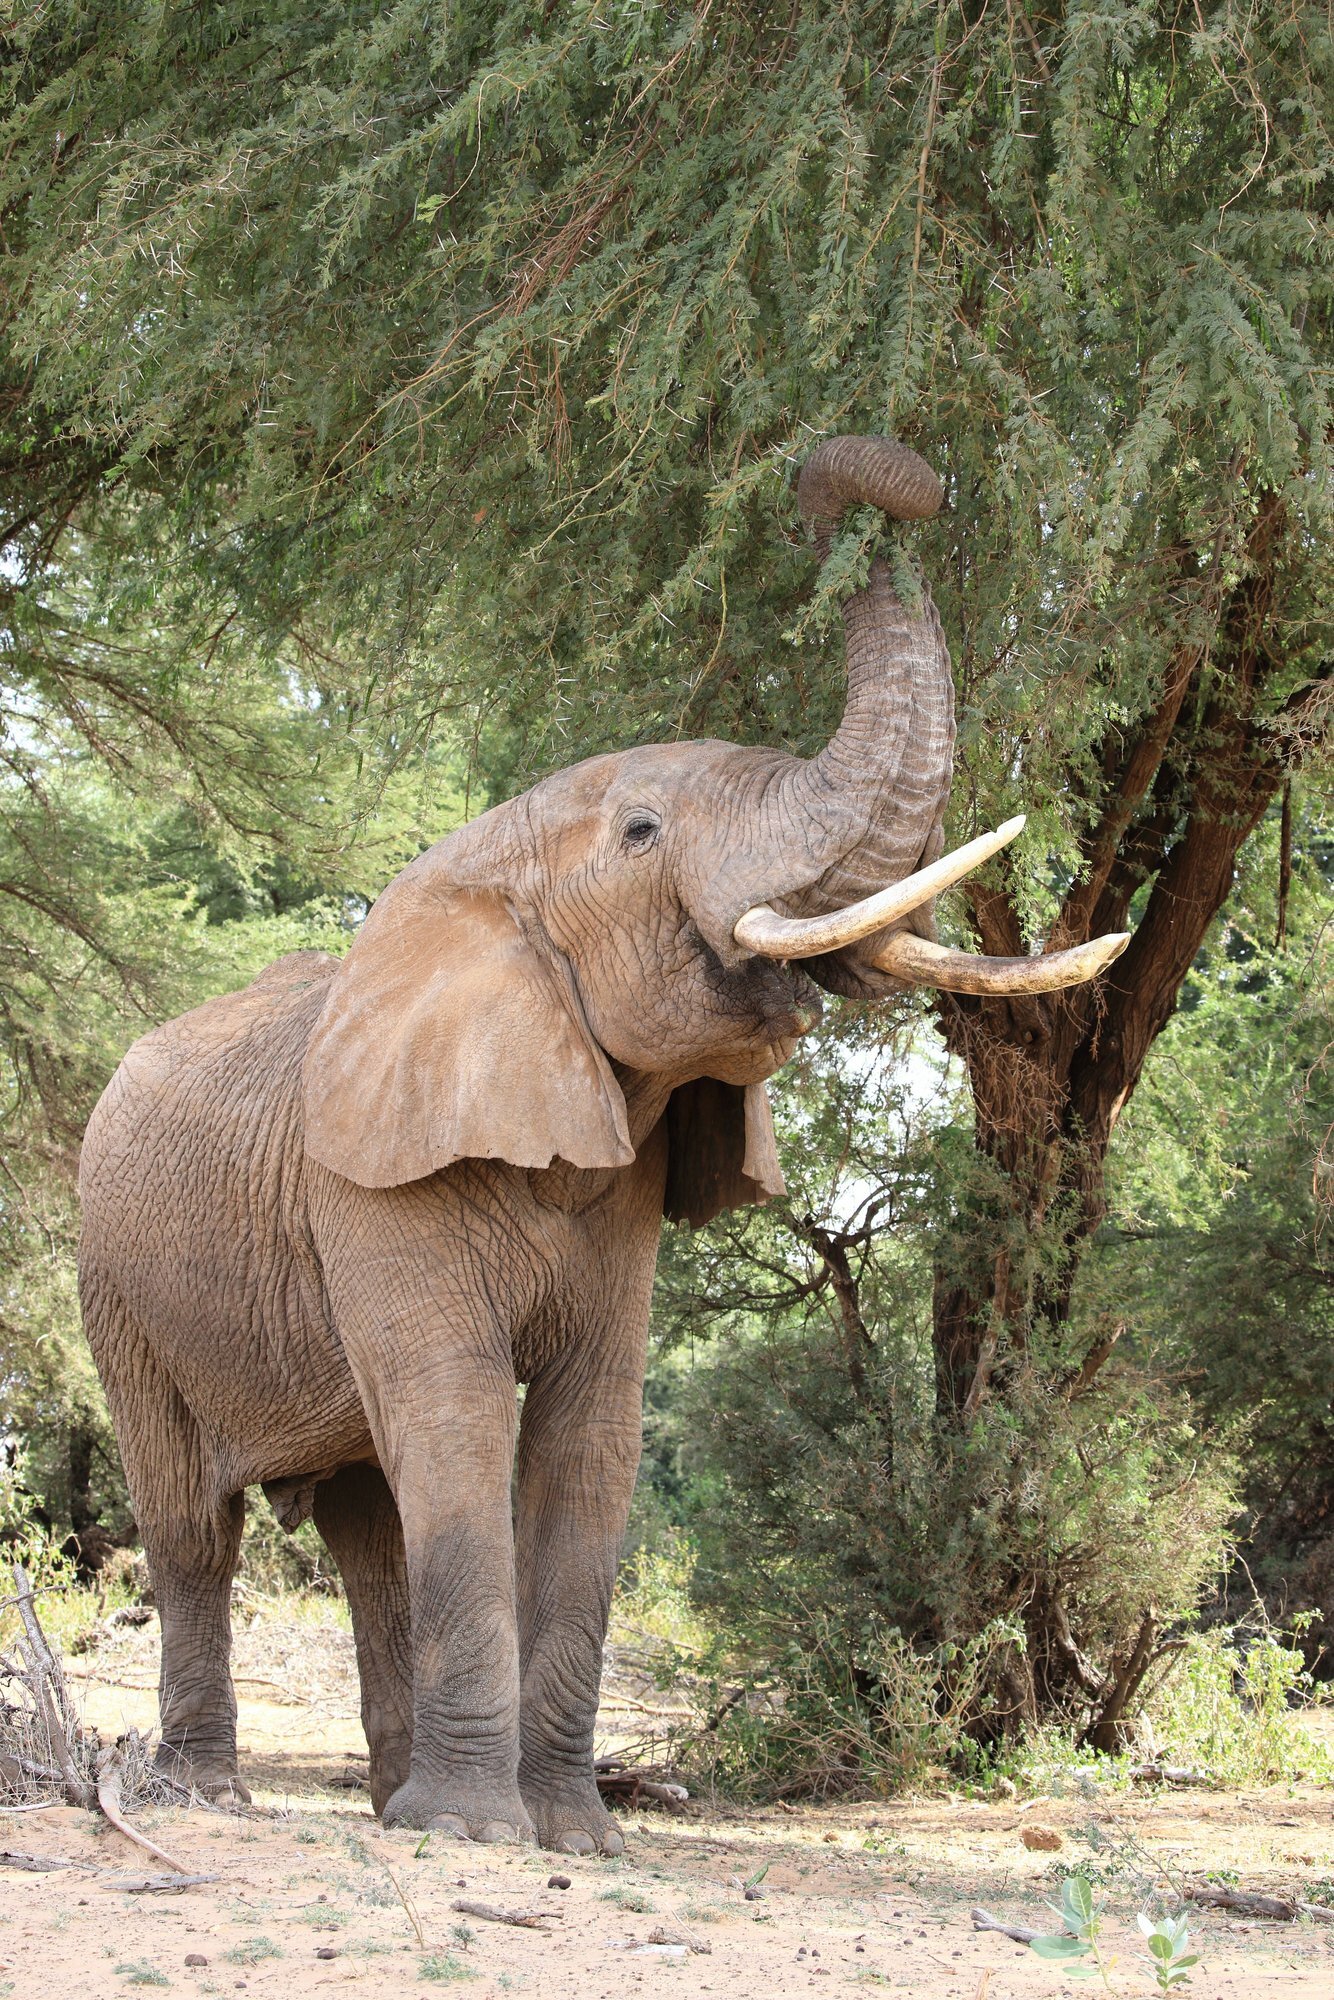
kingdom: Animalia
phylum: Chordata
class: Mammalia
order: Proboscidea
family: Elephantidae
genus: Loxodonta
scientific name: Loxodonta africana
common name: African elephant
